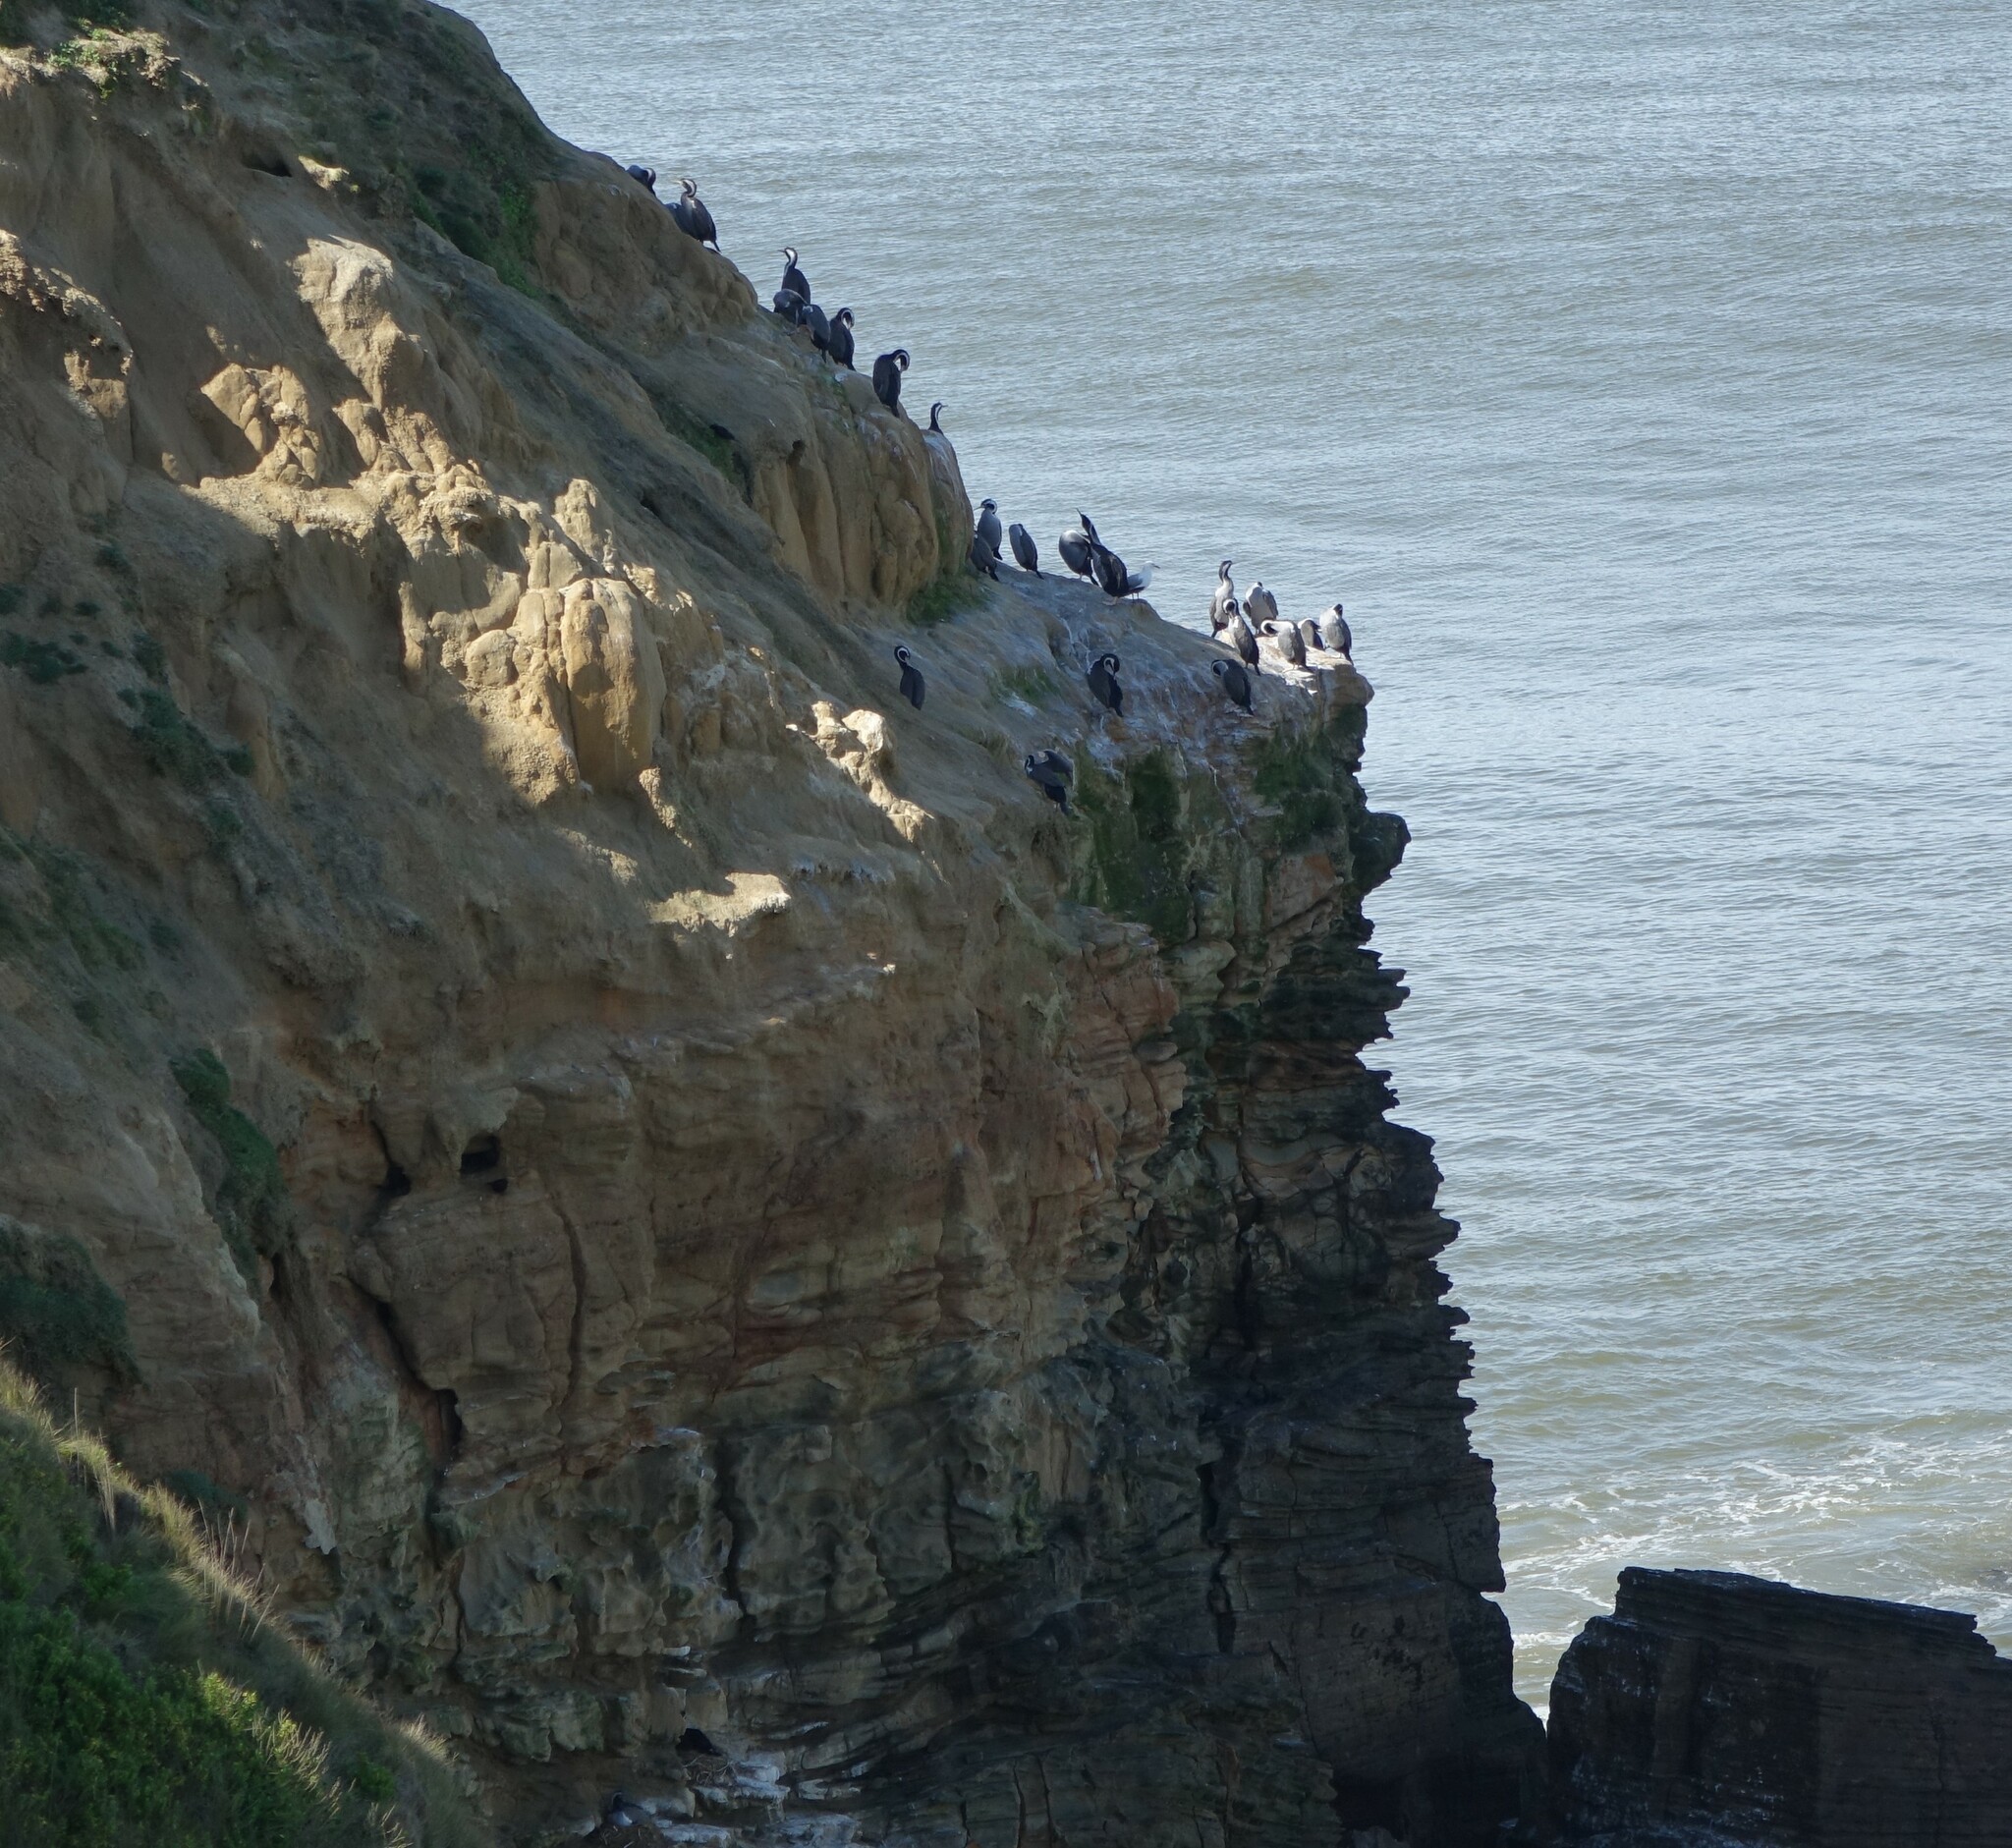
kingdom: Animalia
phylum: Chordata
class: Aves
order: Suliformes
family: Phalacrocoracidae
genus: Phalacrocorax
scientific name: Phalacrocorax punctatus
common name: Spotted shag
